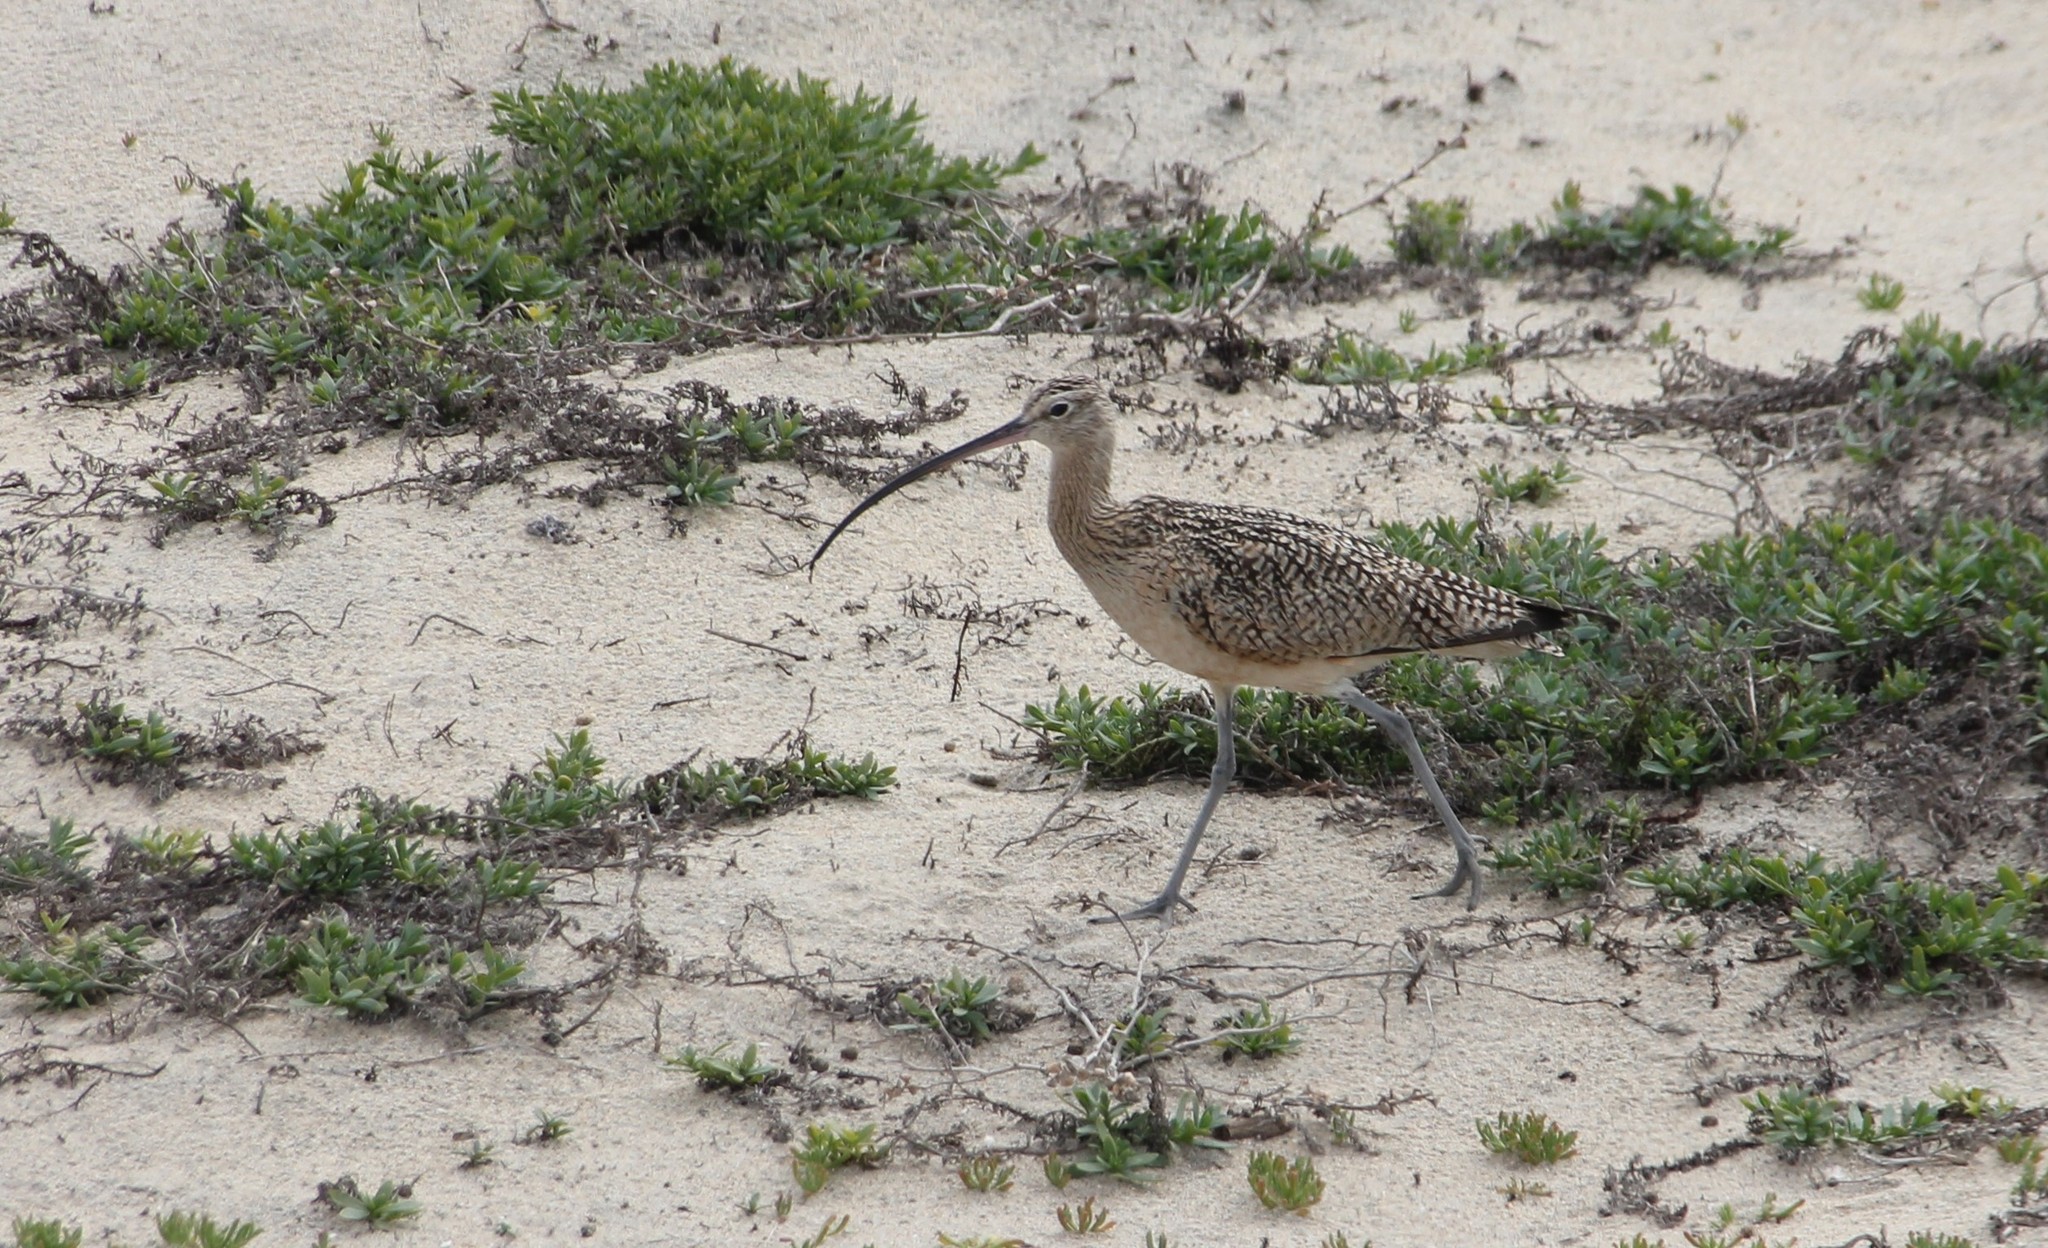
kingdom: Animalia
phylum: Chordata
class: Aves
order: Charadriiformes
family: Scolopacidae
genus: Numenius
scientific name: Numenius americanus
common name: Long-billed curlew
